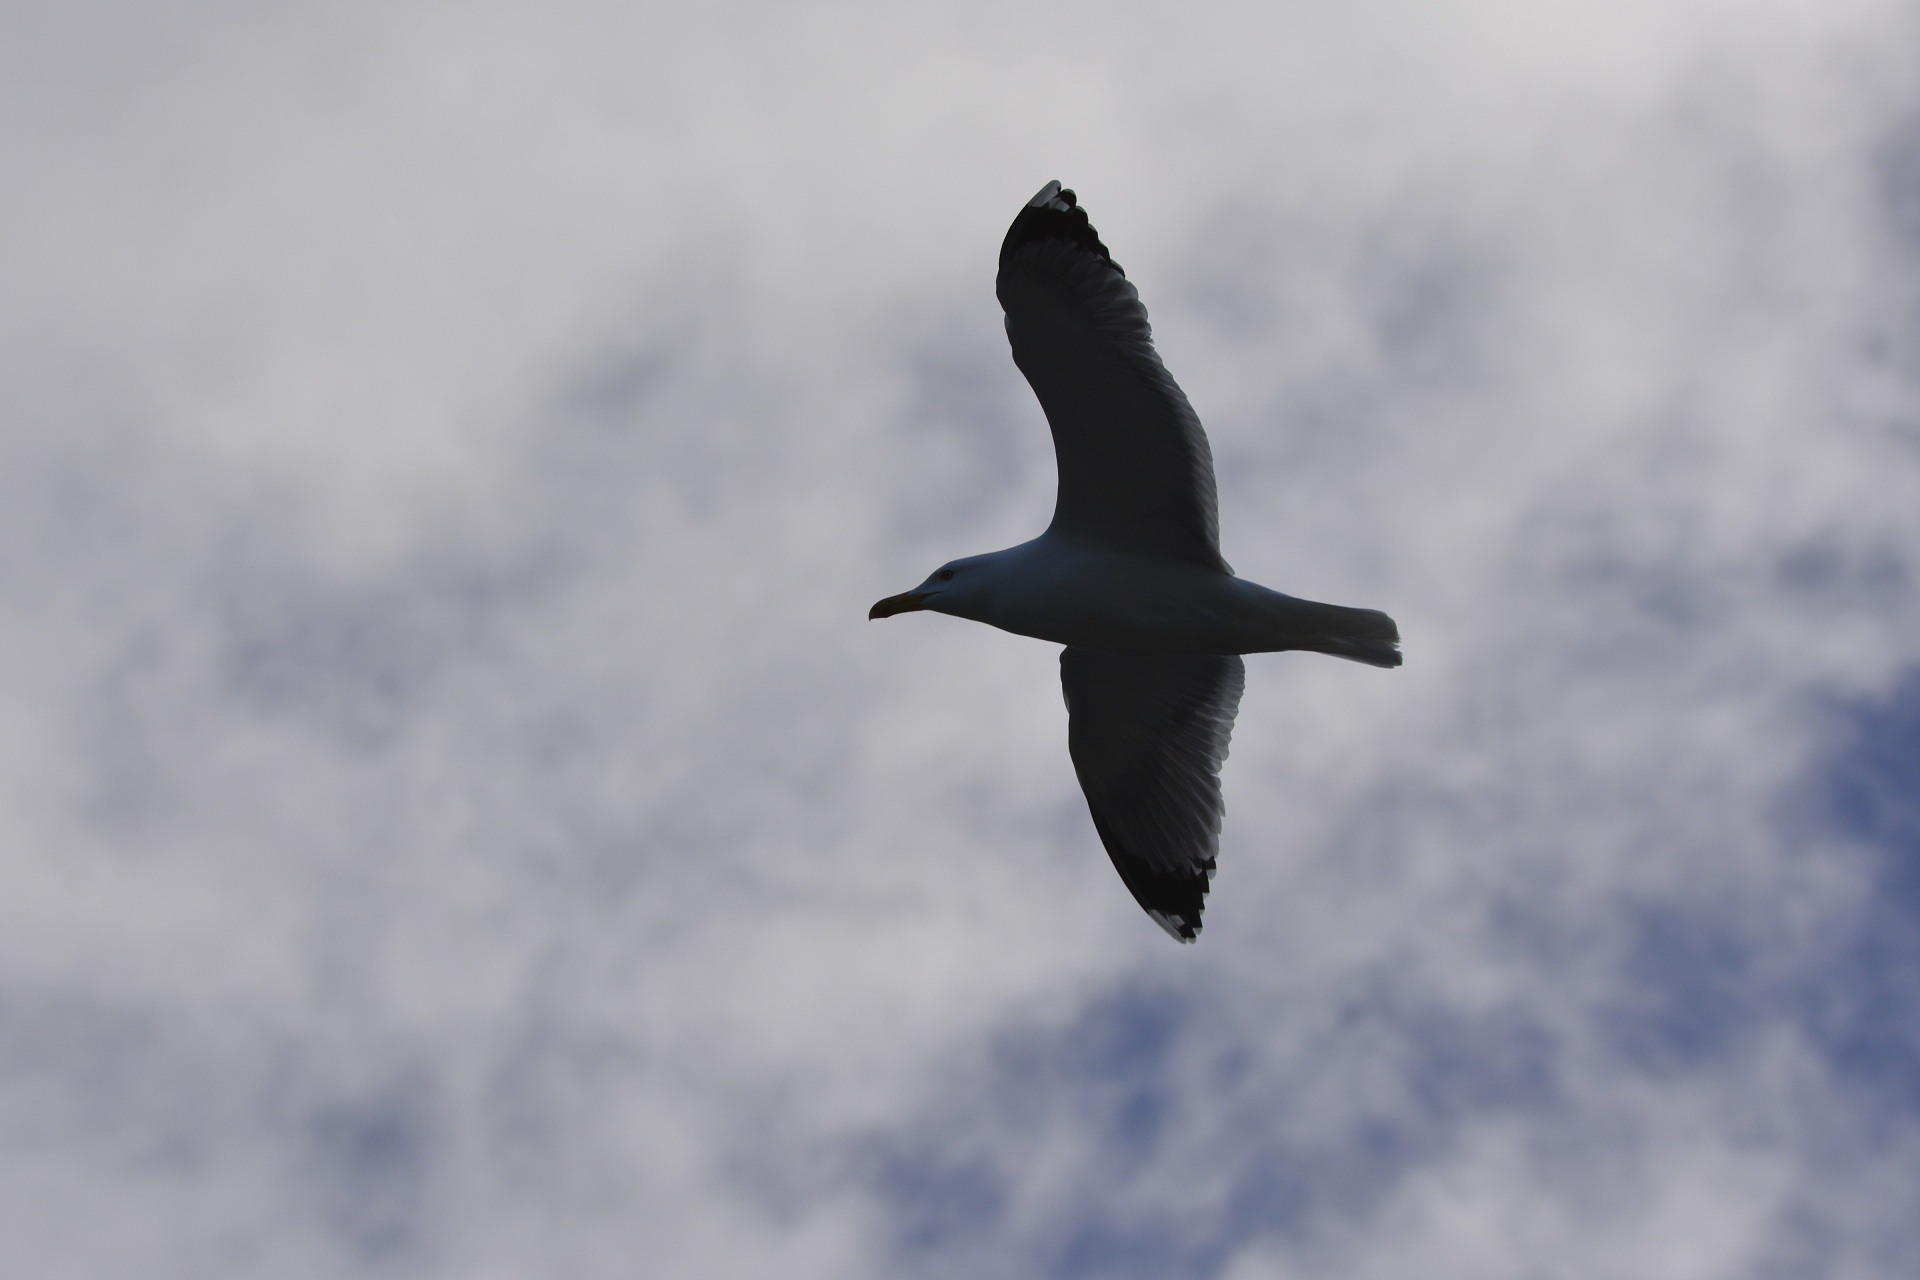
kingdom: Animalia
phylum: Chordata
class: Aves
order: Charadriiformes
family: Laridae
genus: Larus
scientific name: Larus michahellis
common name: Yellow-legged gull
